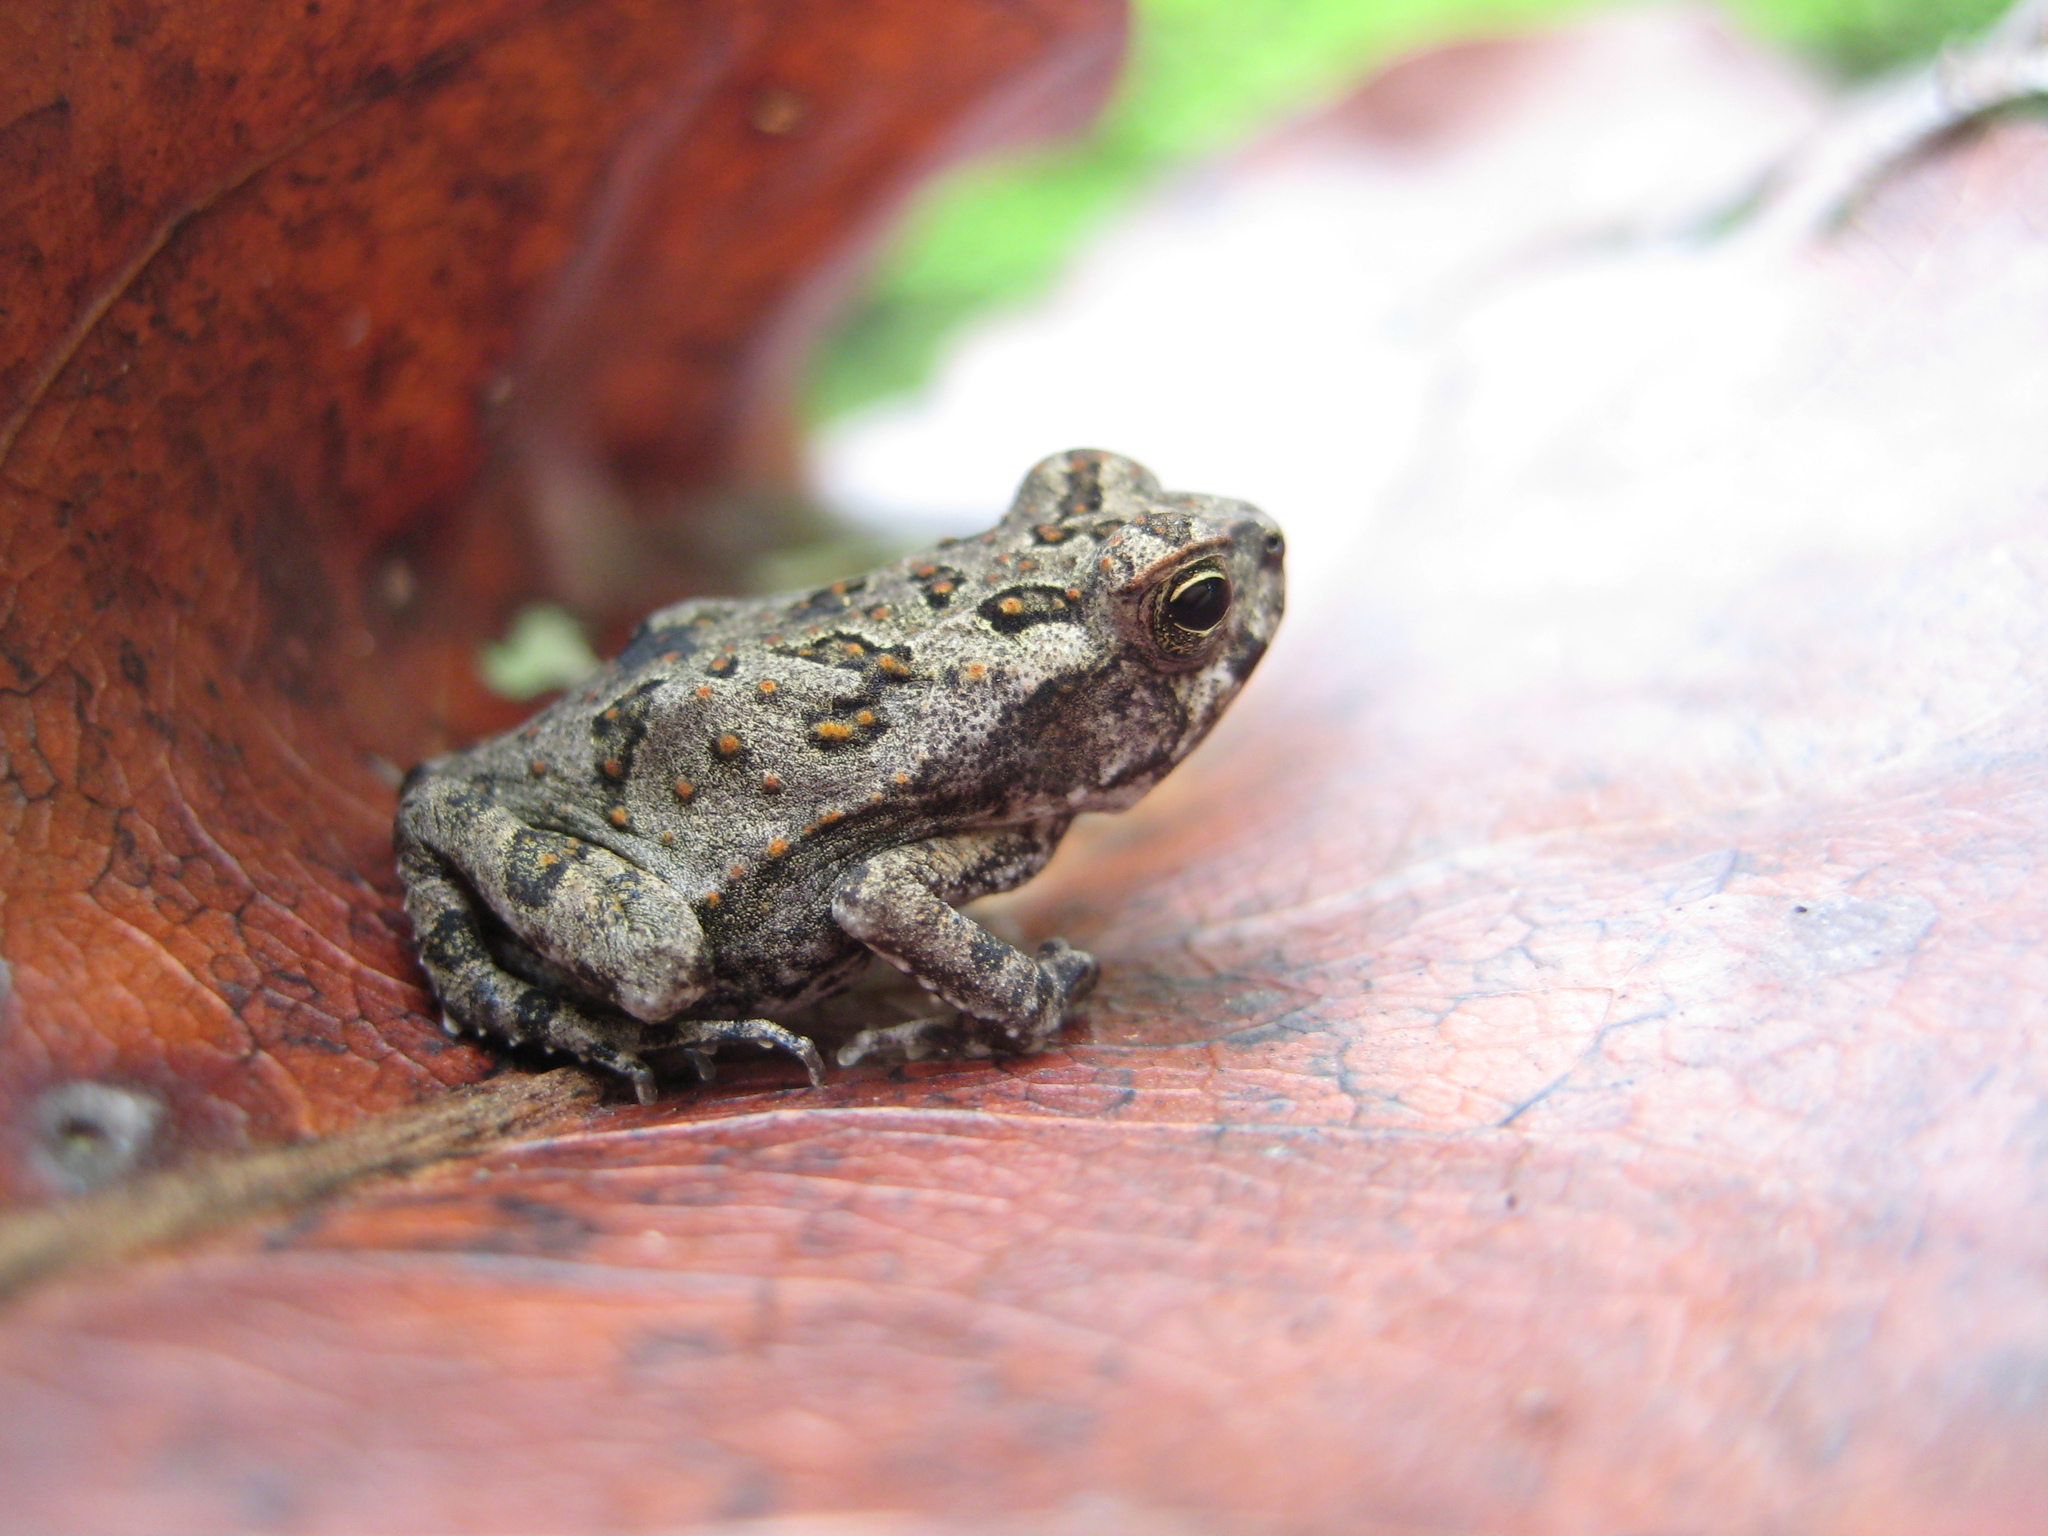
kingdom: Animalia
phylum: Chordata
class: Amphibia
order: Anura
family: Bufonidae
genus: Rhinella
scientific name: Rhinella marina
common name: Cane toad
